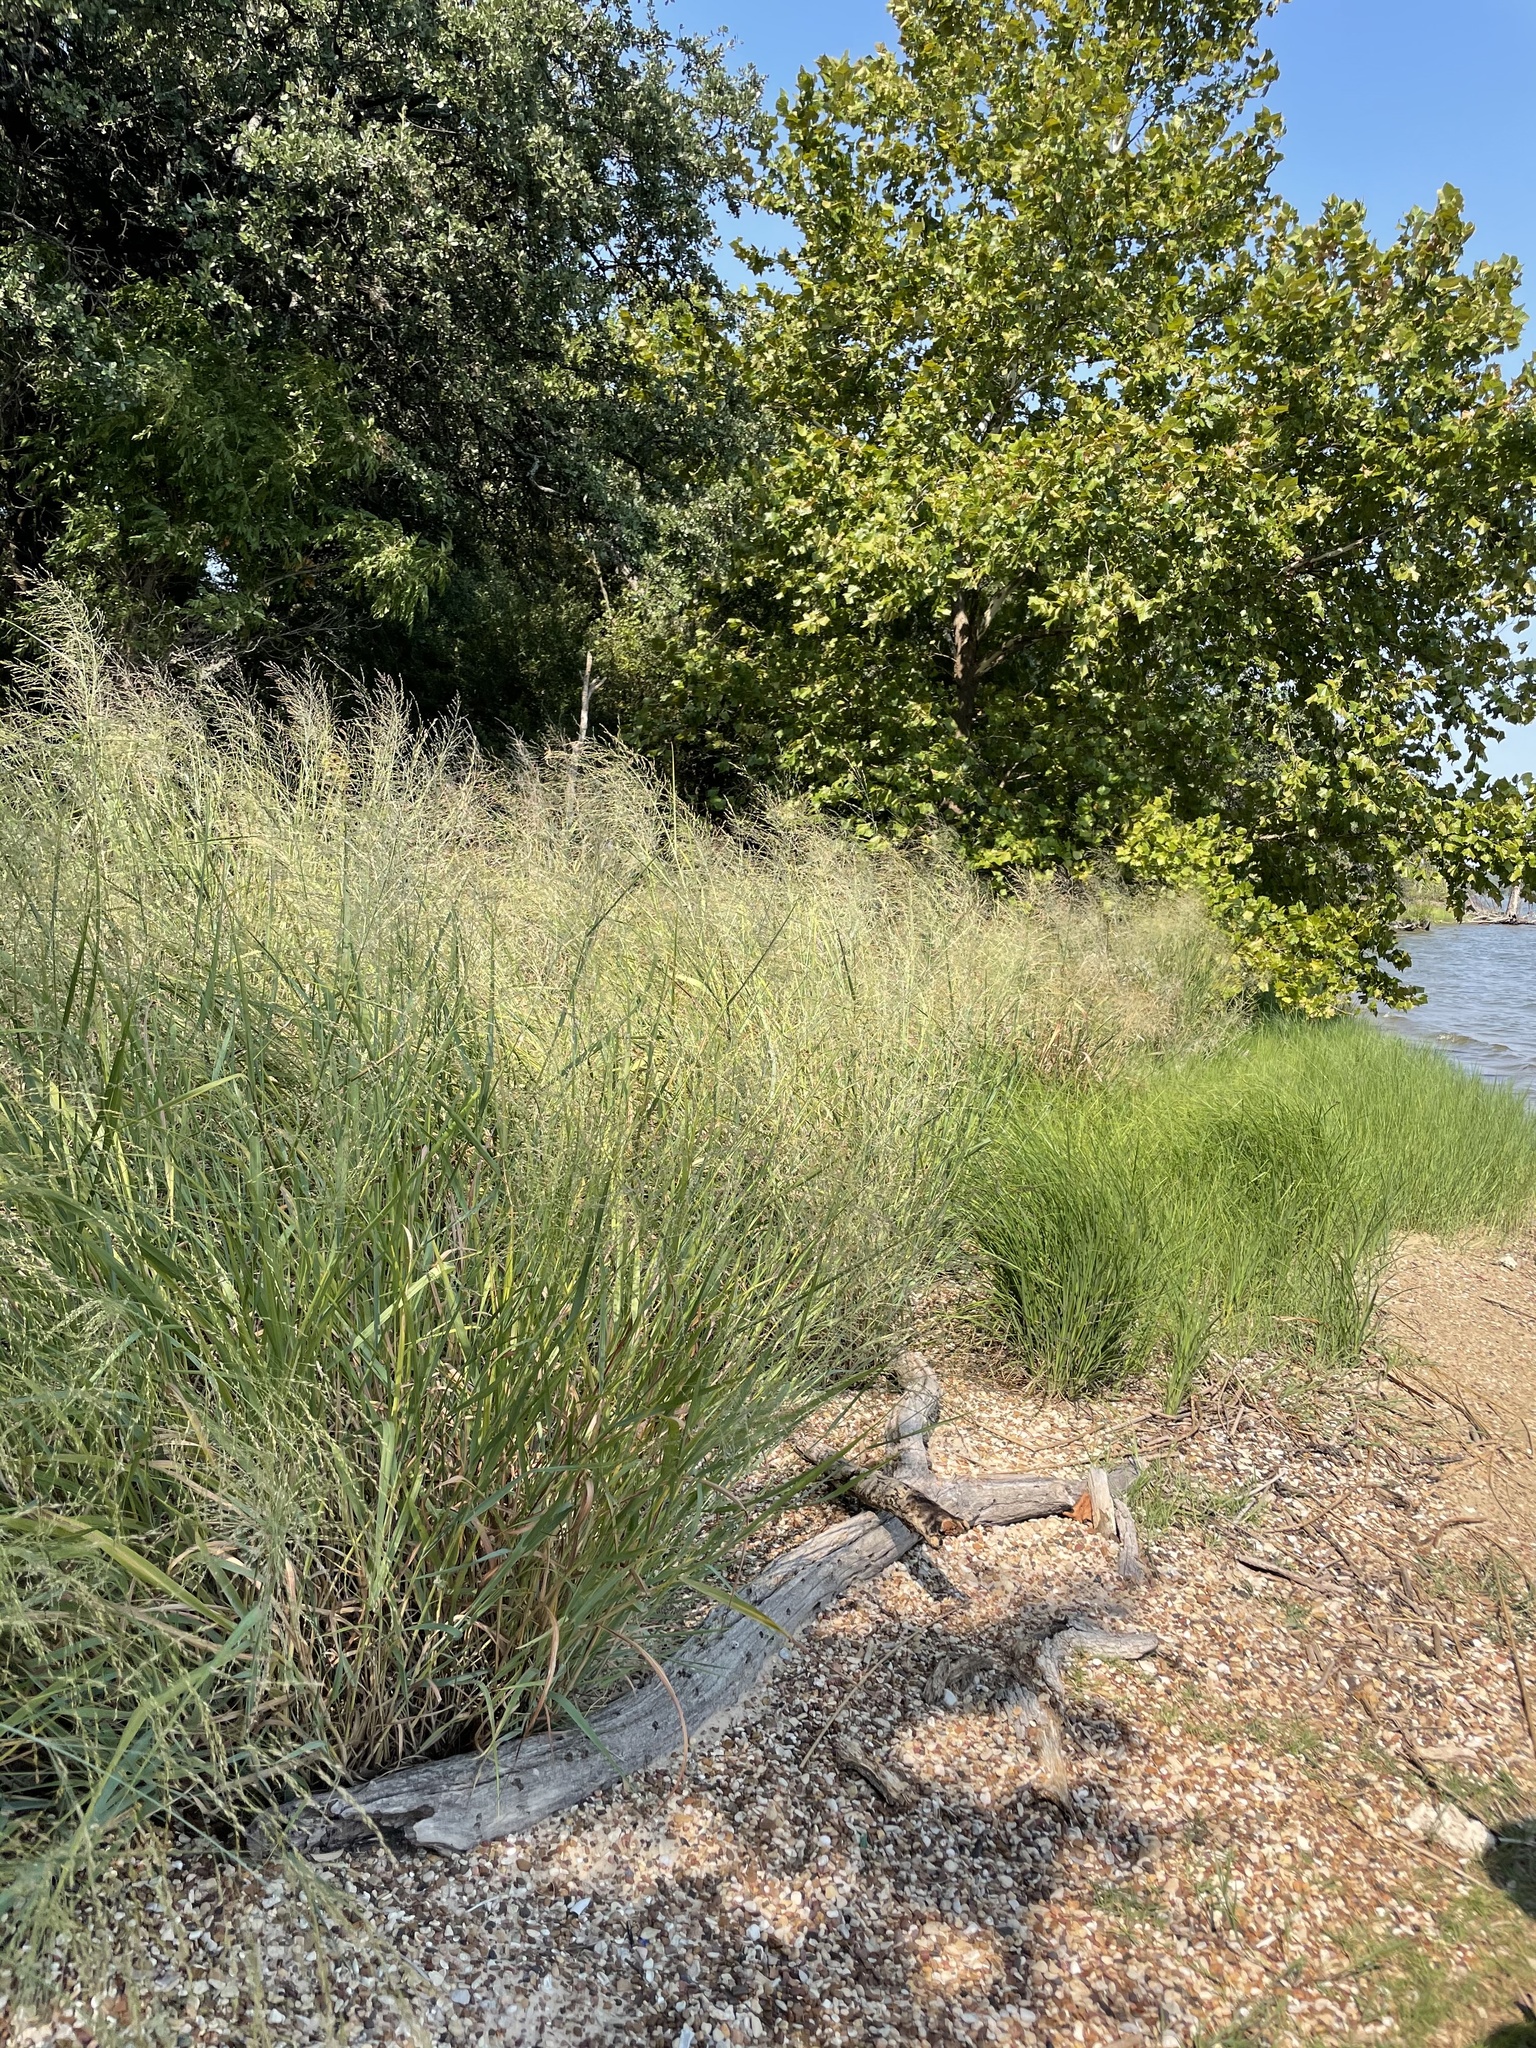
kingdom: Plantae
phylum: Tracheophyta
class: Liliopsida
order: Poales
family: Poaceae
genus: Panicum
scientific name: Panicum virgatum
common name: Switchgrass
